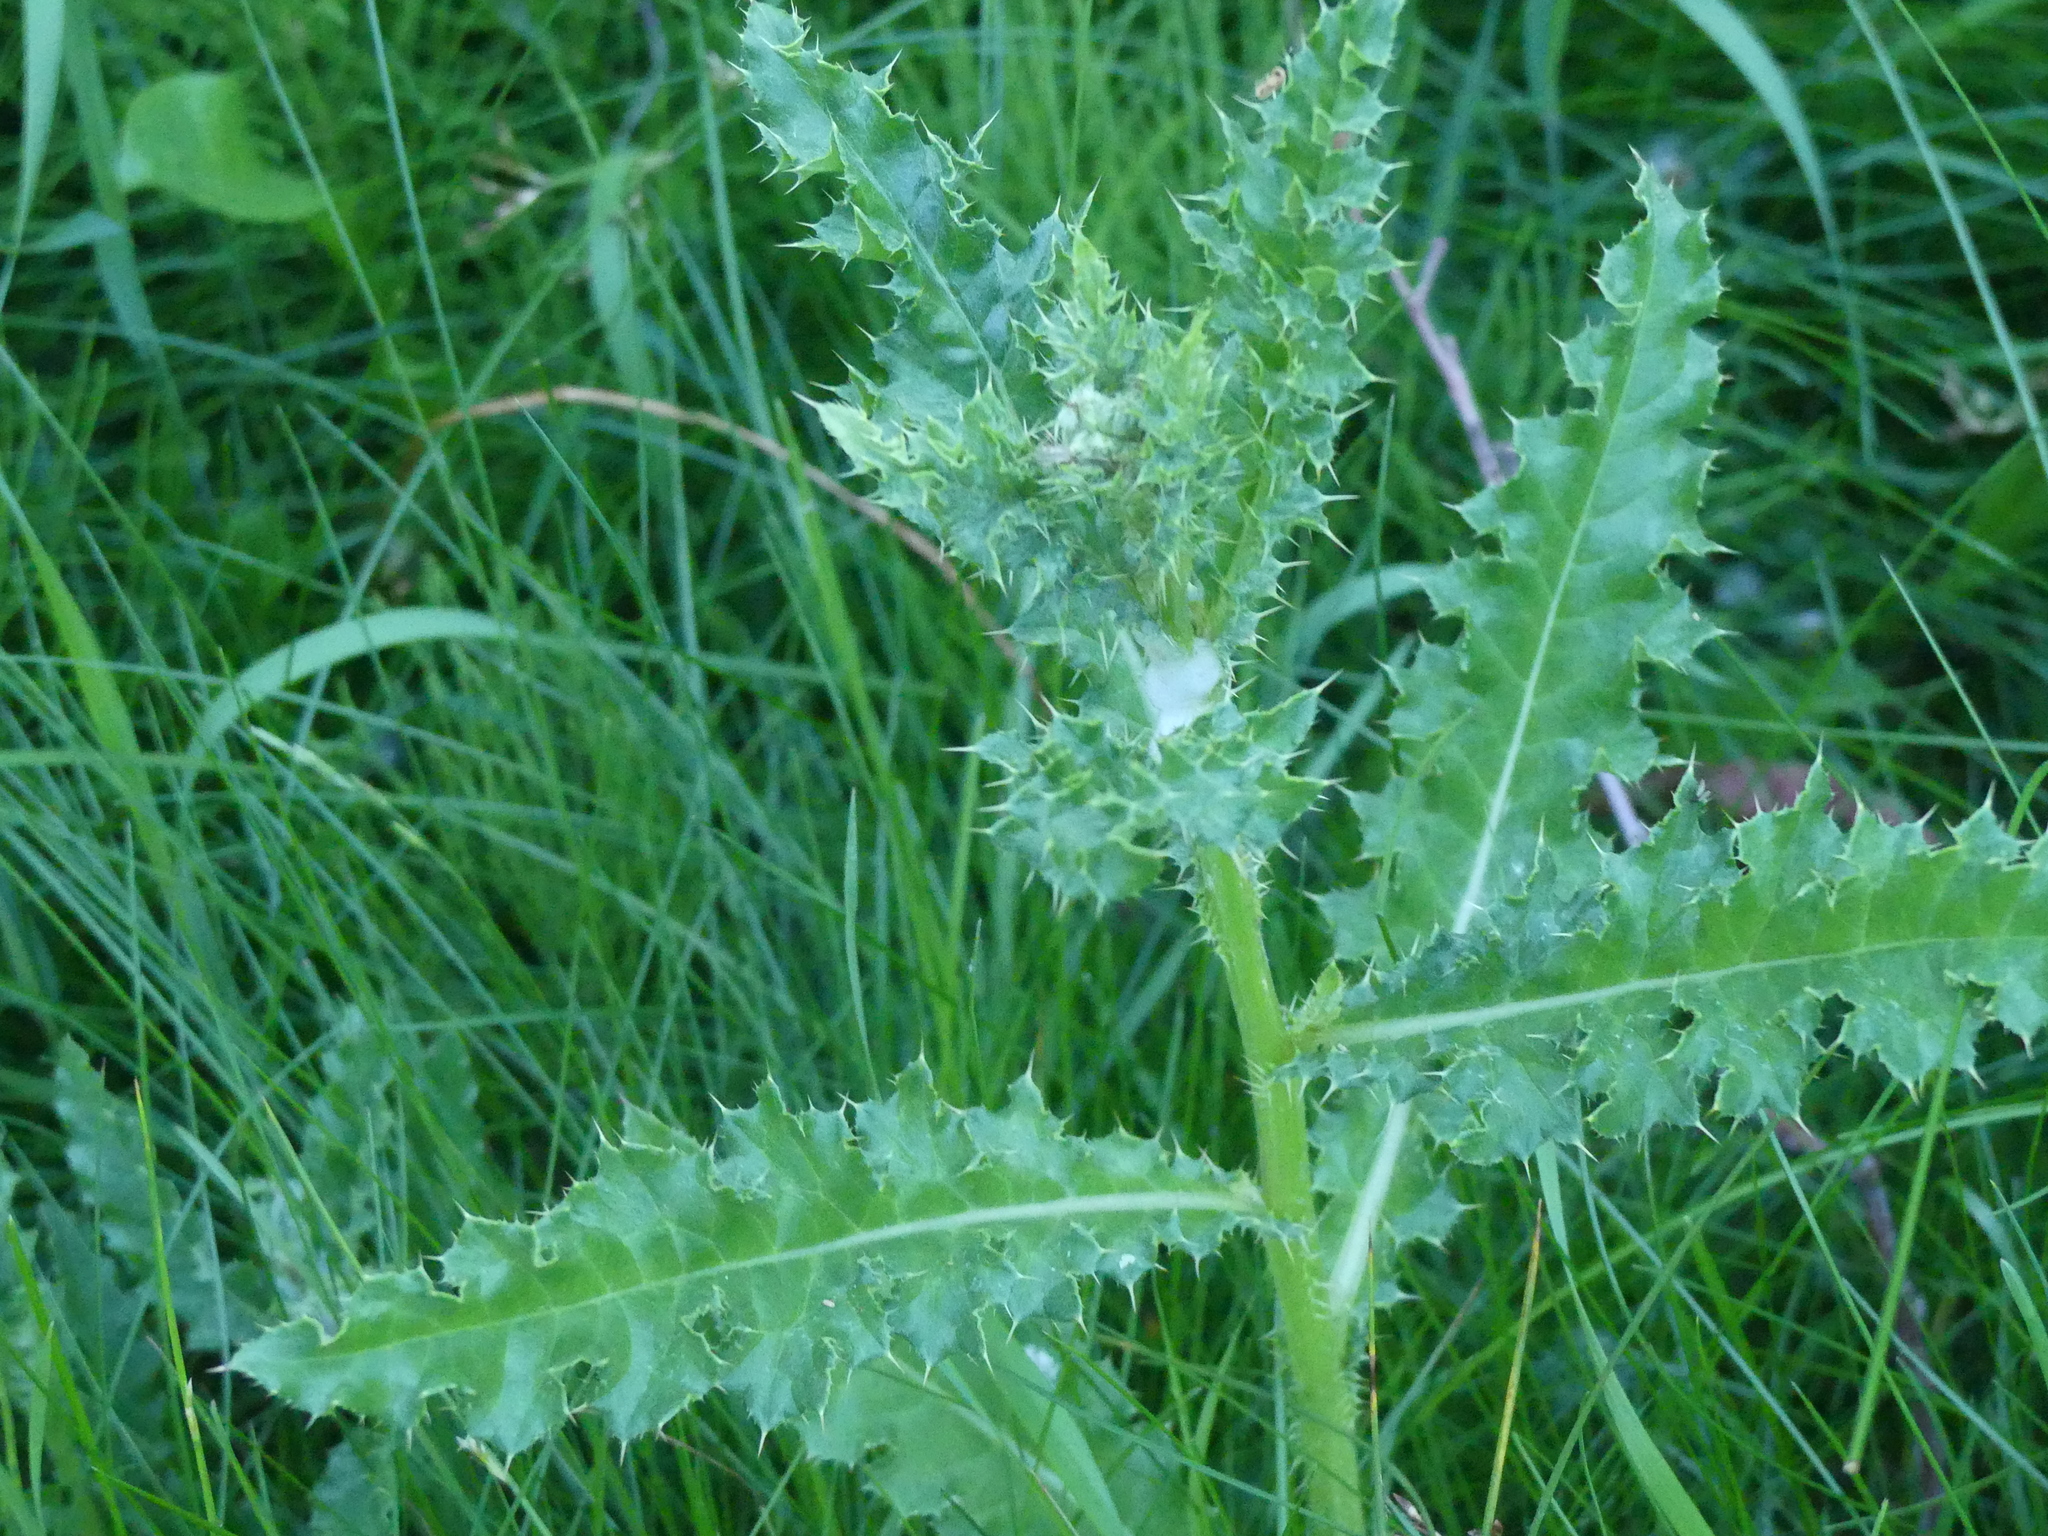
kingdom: Plantae
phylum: Tracheophyta
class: Magnoliopsida
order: Asterales
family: Asteraceae
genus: Cirsium
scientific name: Cirsium arvense
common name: Creeping thistle
